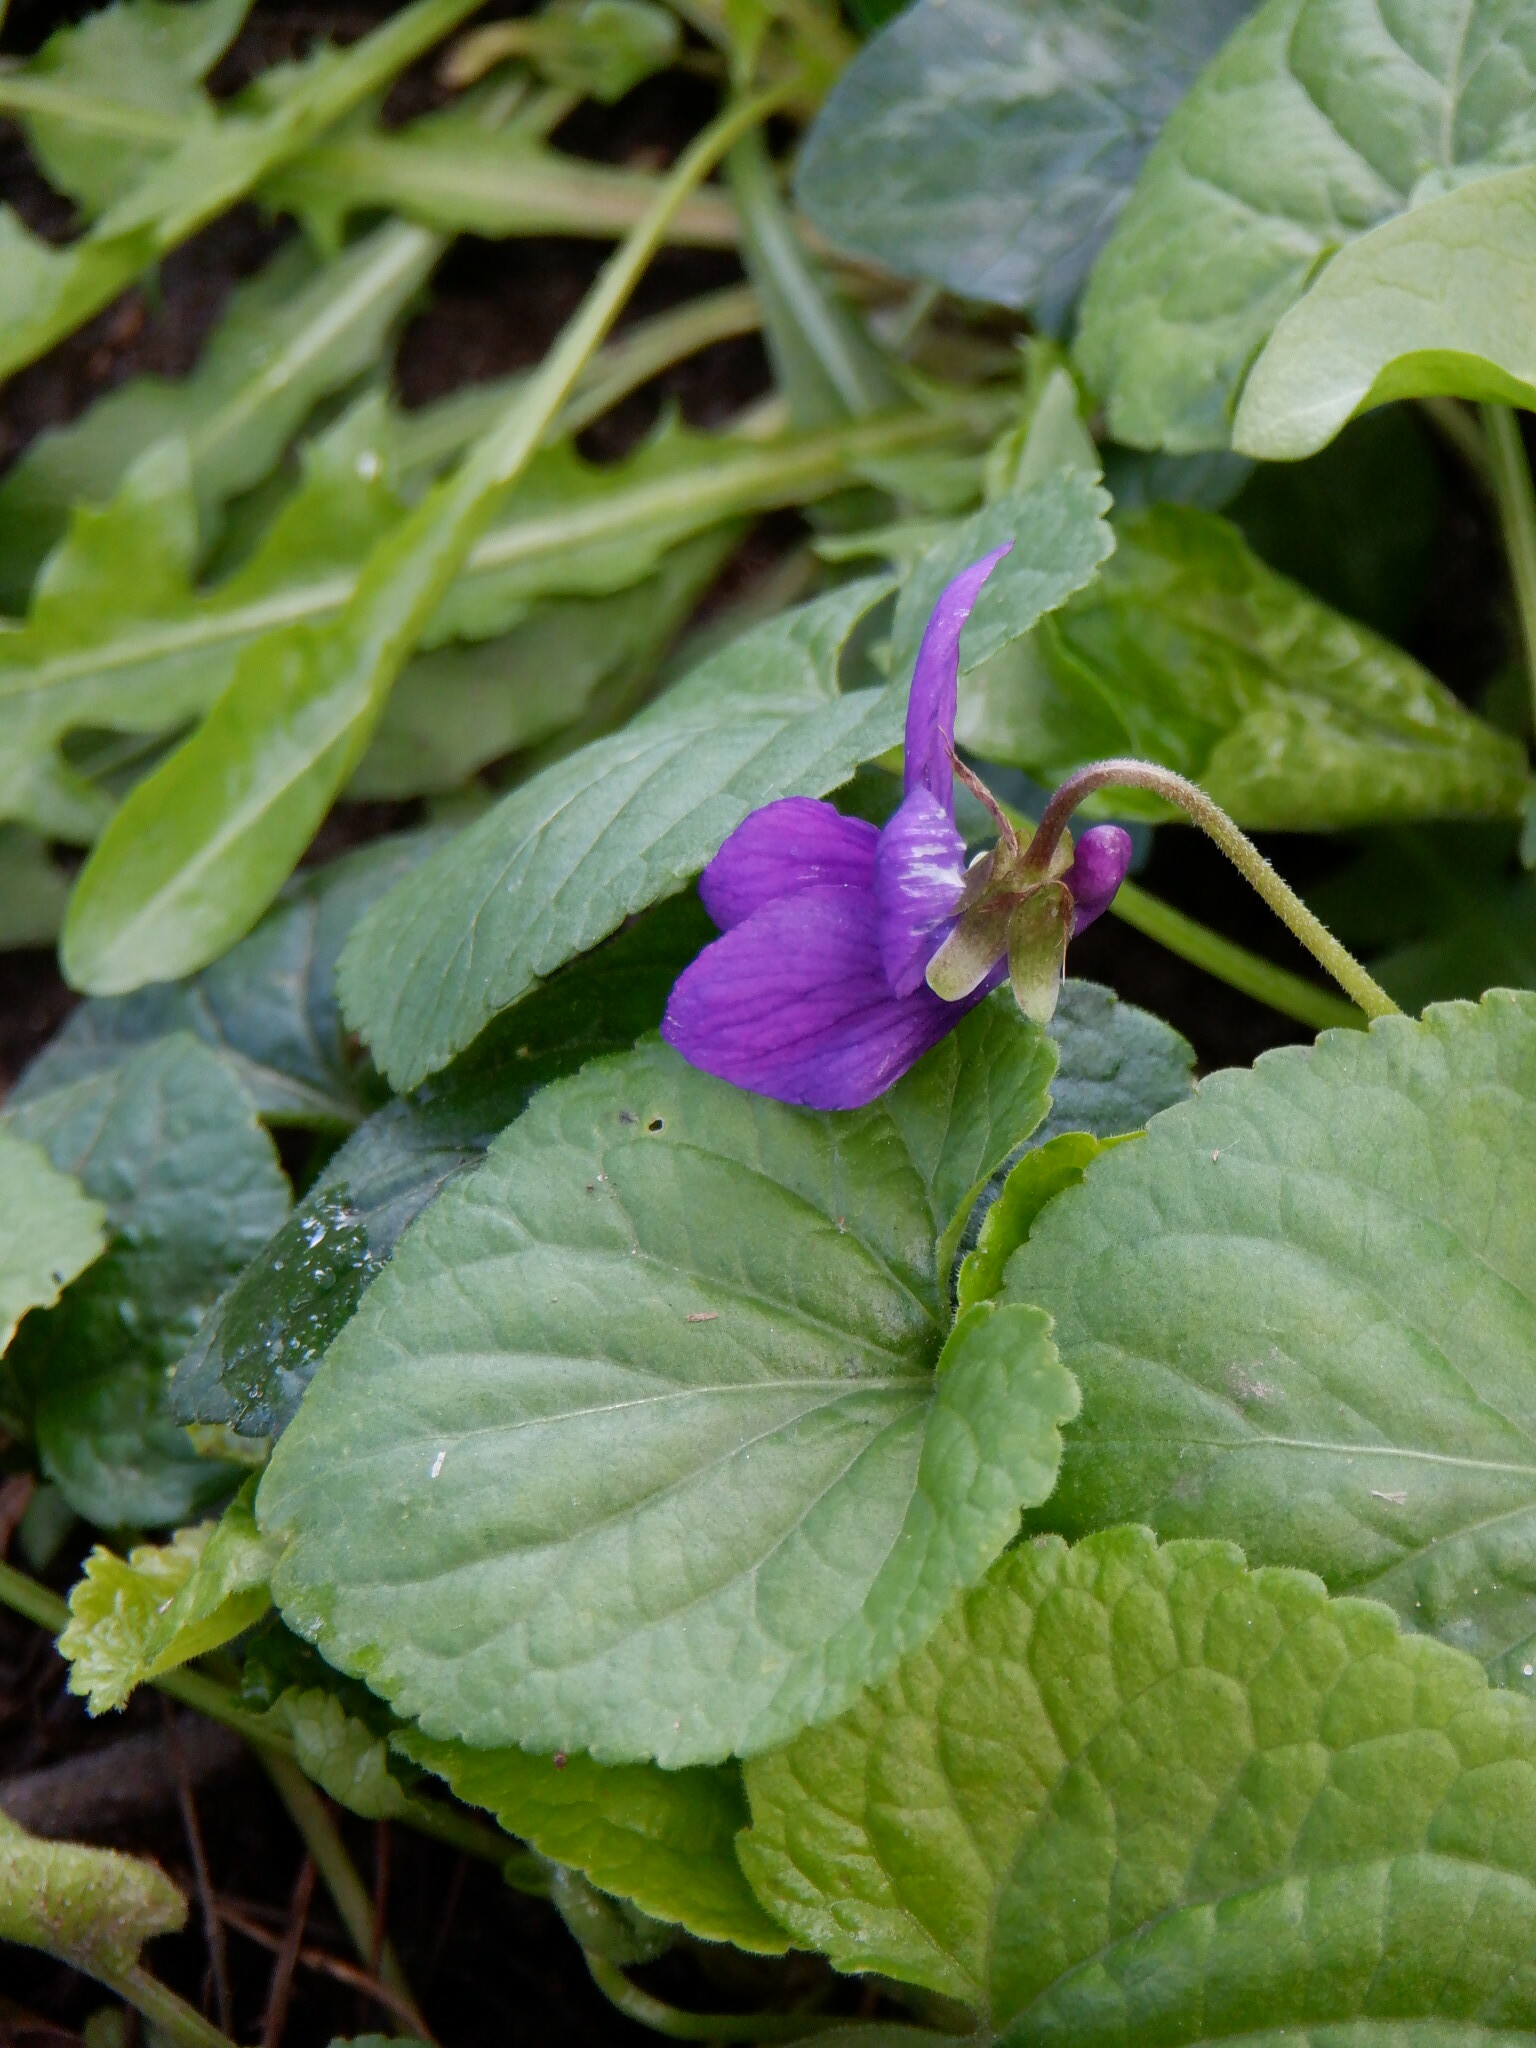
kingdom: Plantae
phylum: Tracheophyta
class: Magnoliopsida
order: Malpighiales
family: Violaceae
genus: Viola
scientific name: Viola odorata
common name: Sweet violet
